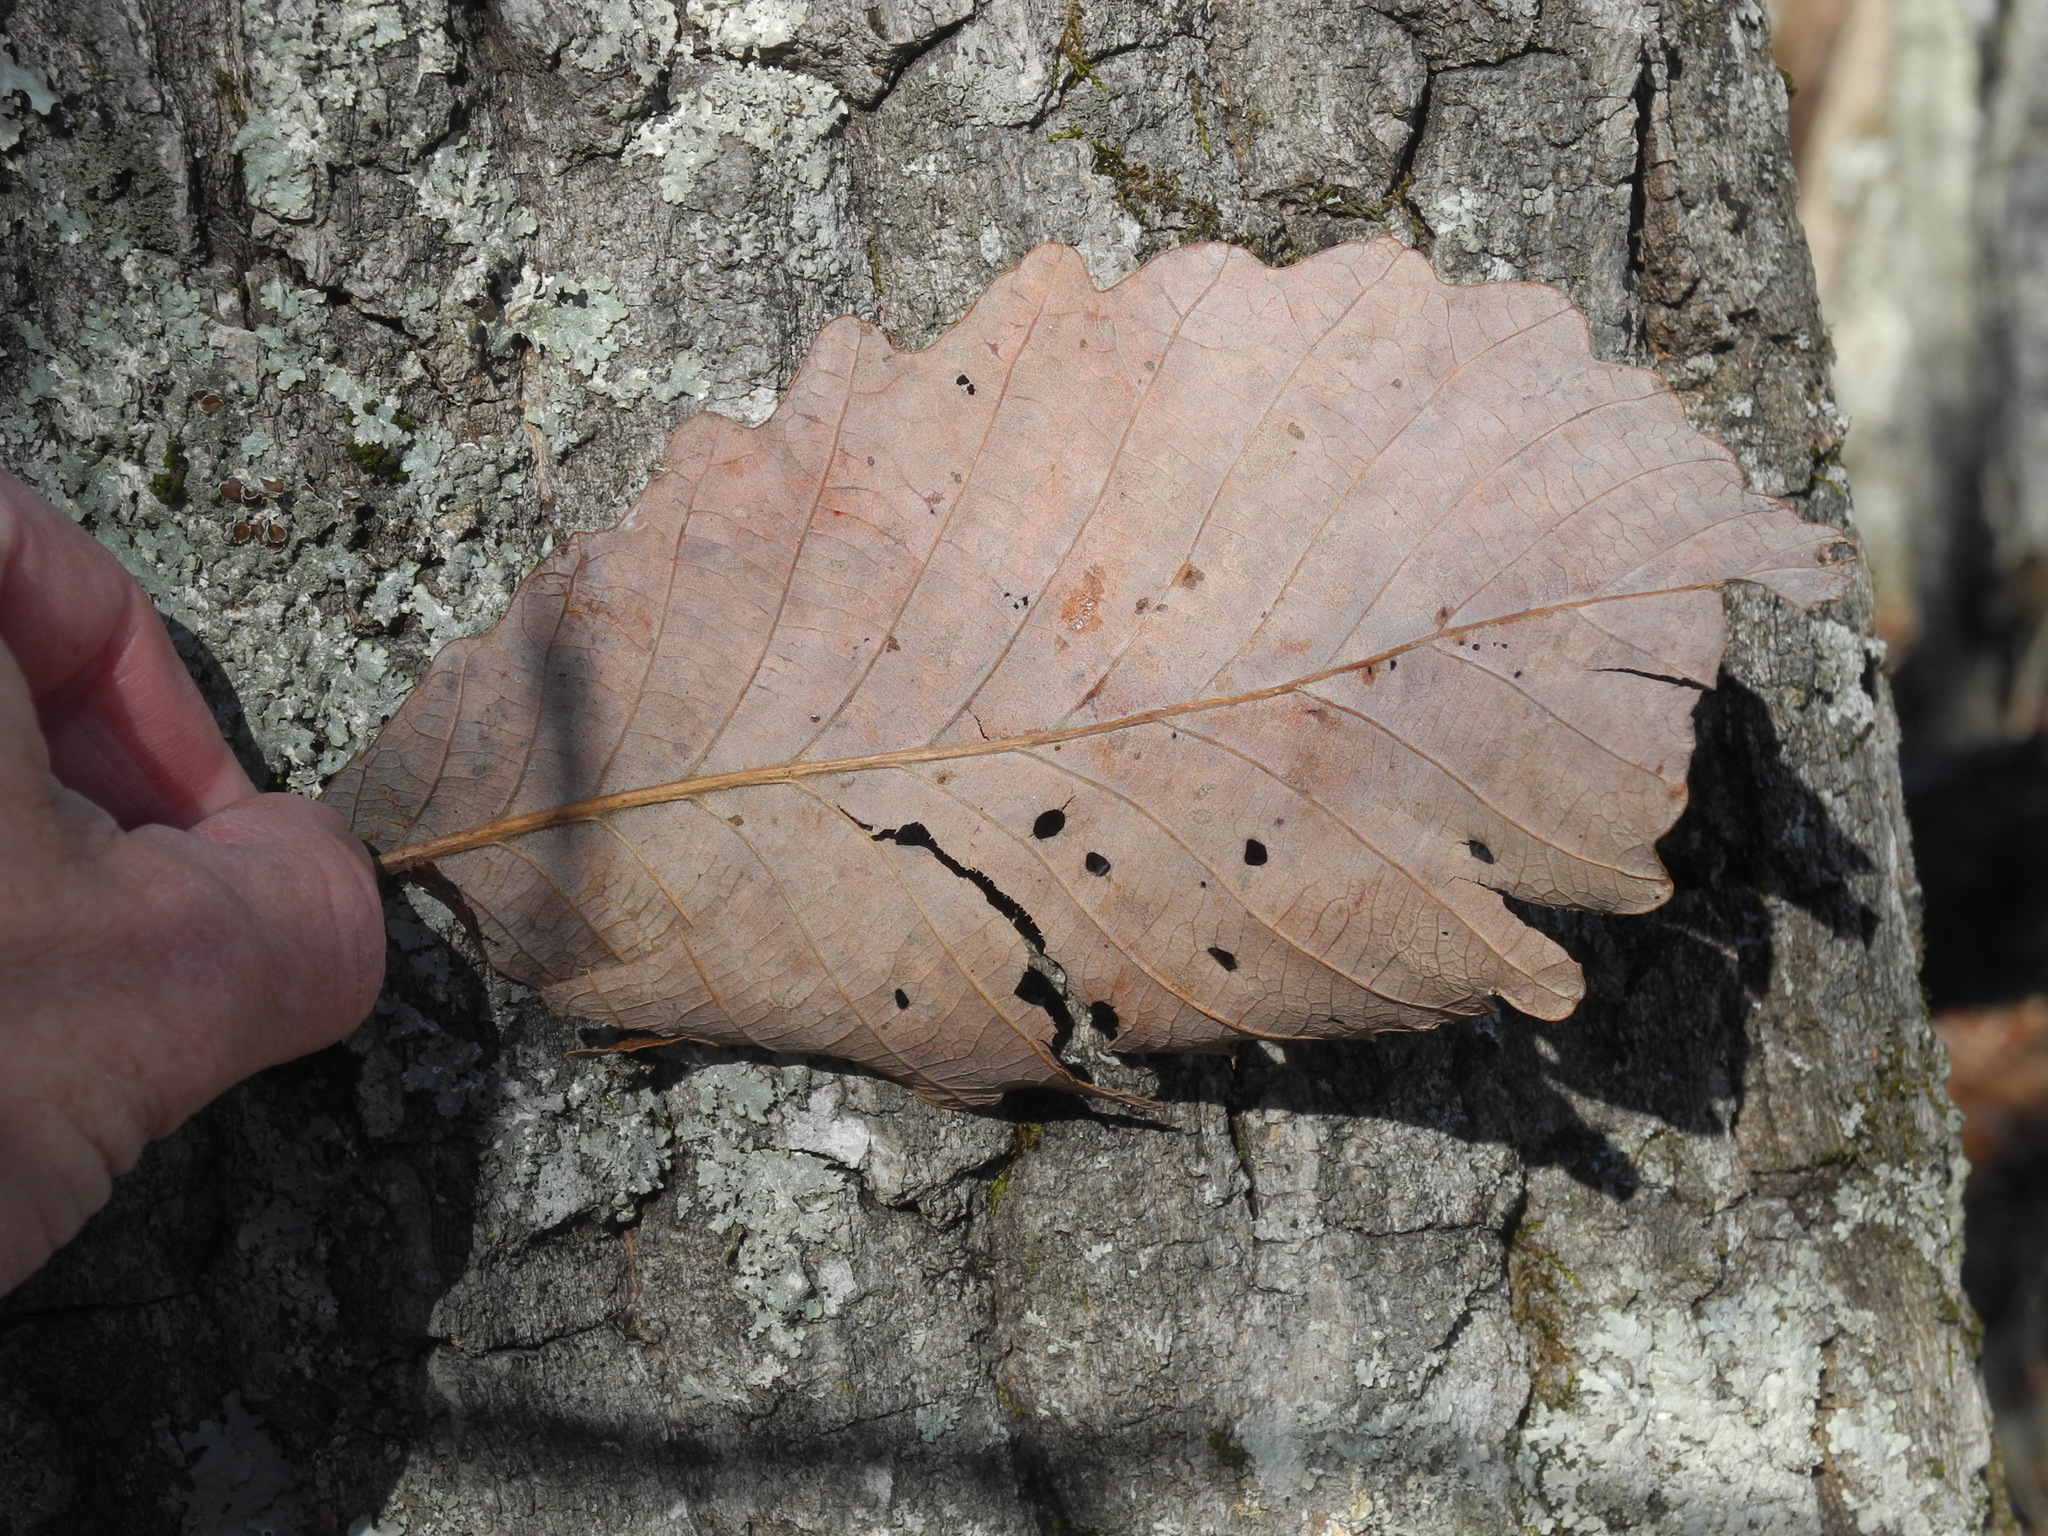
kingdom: Plantae
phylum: Tracheophyta
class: Magnoliopsida
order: Fagales
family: Fagaceae
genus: Quercus
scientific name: Quercus montana
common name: Chestnut oak
